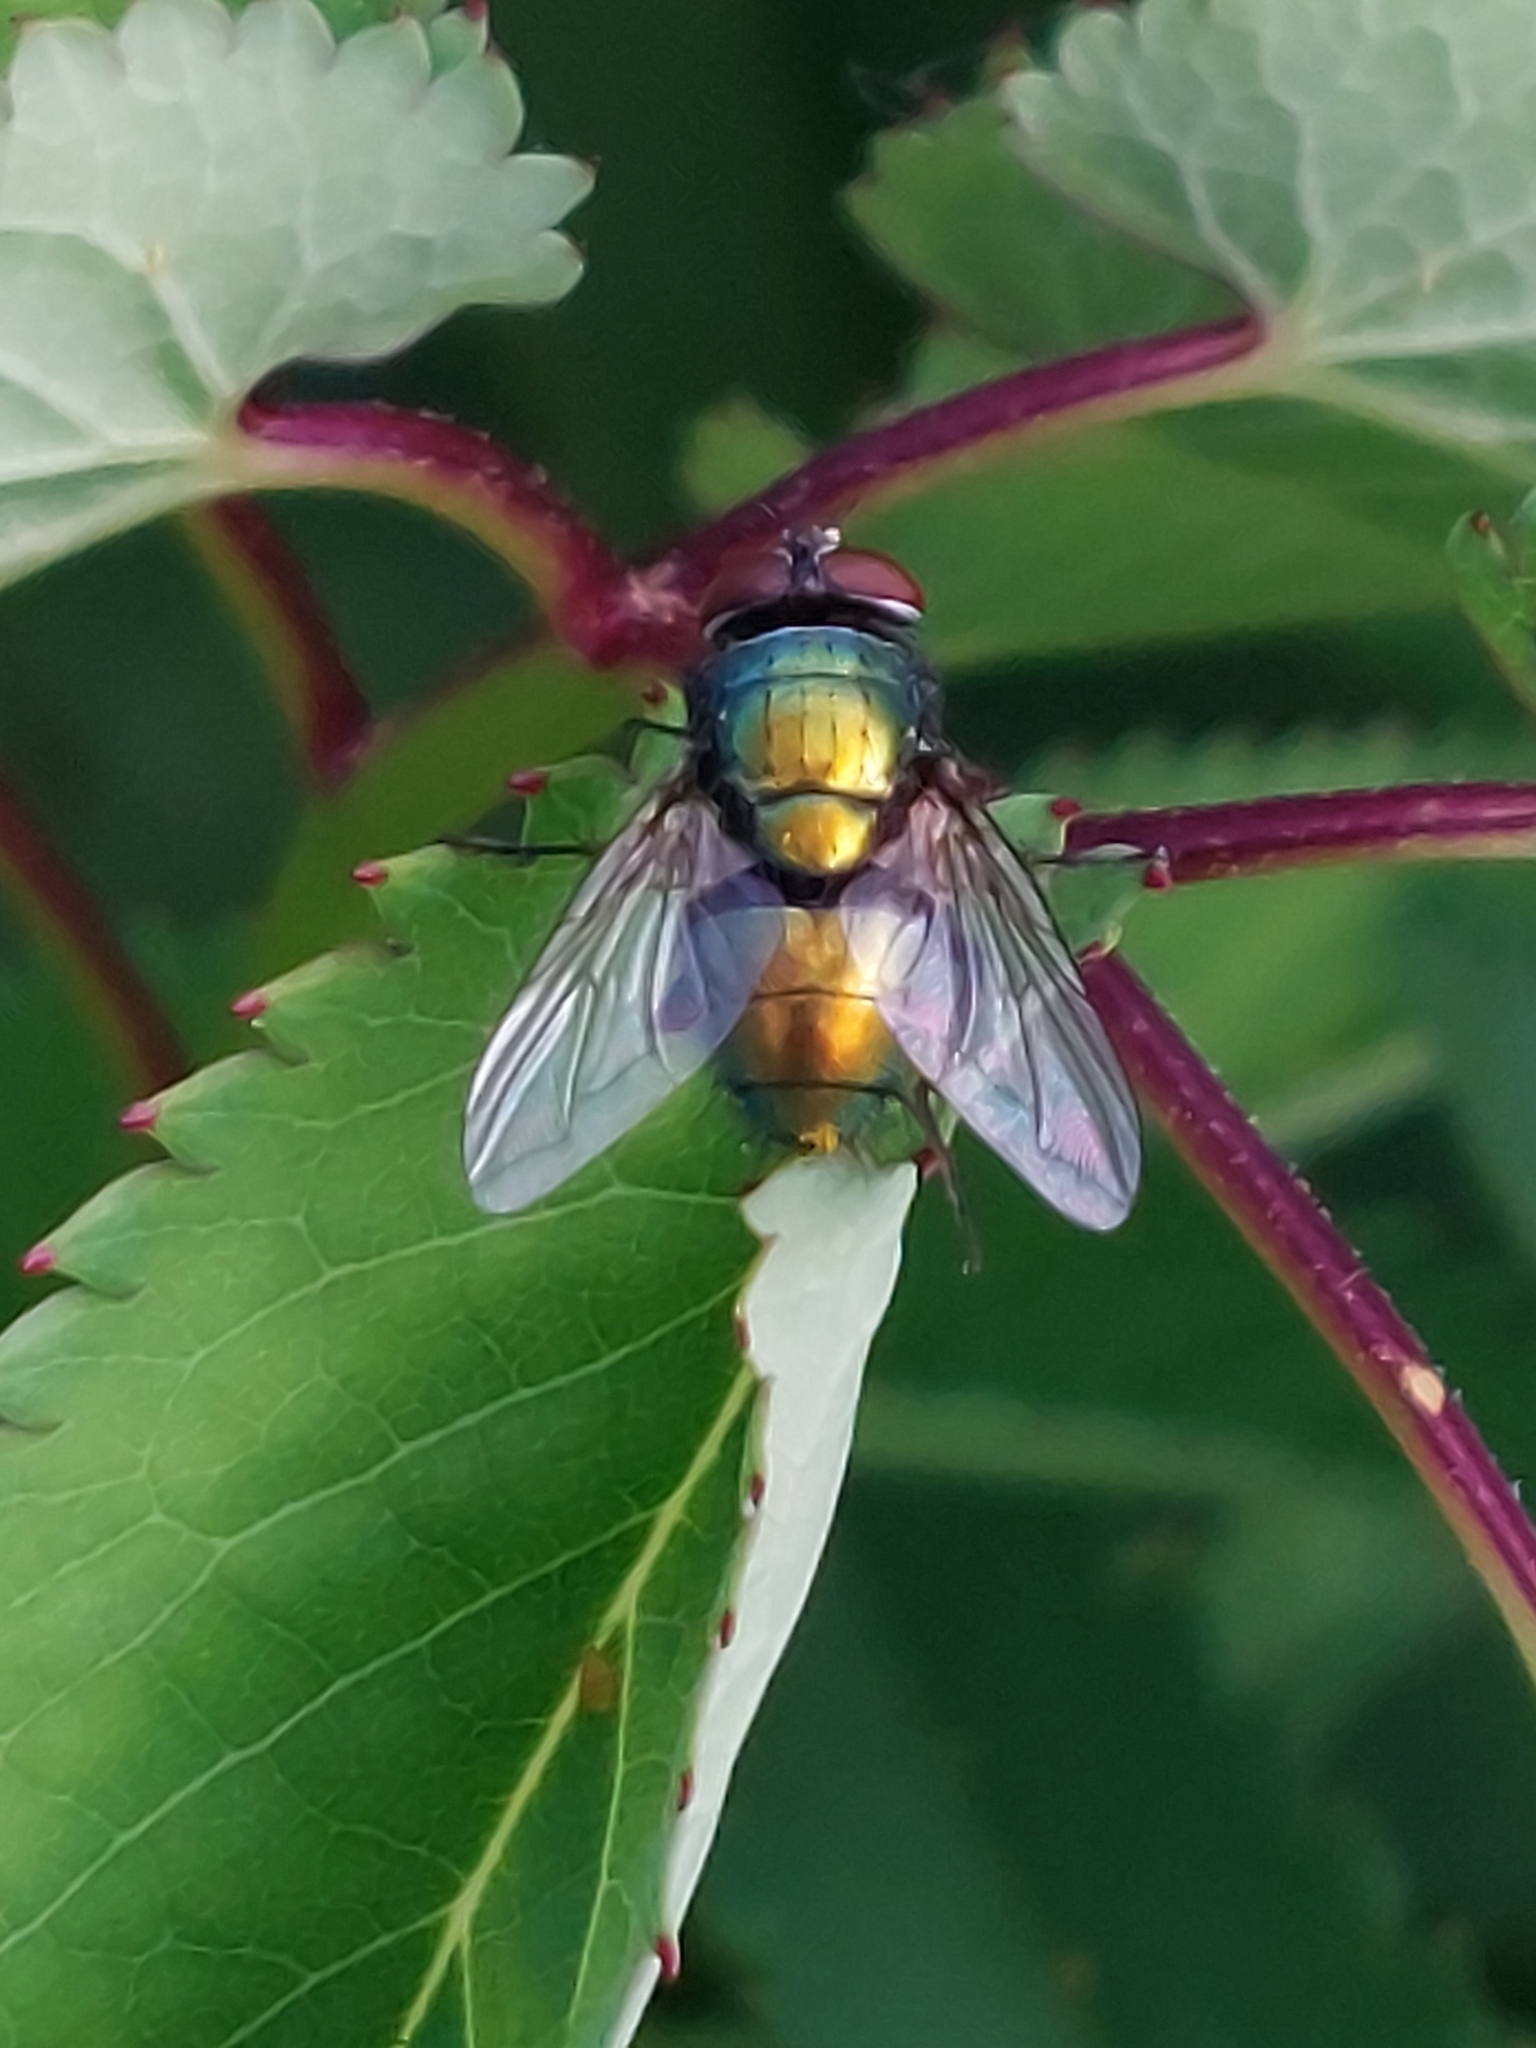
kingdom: Animalia
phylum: Arthropoda
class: Insecta
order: Diptera
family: Calliphoridae
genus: Lucilia
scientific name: Lucilia sericata
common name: Blow fly
